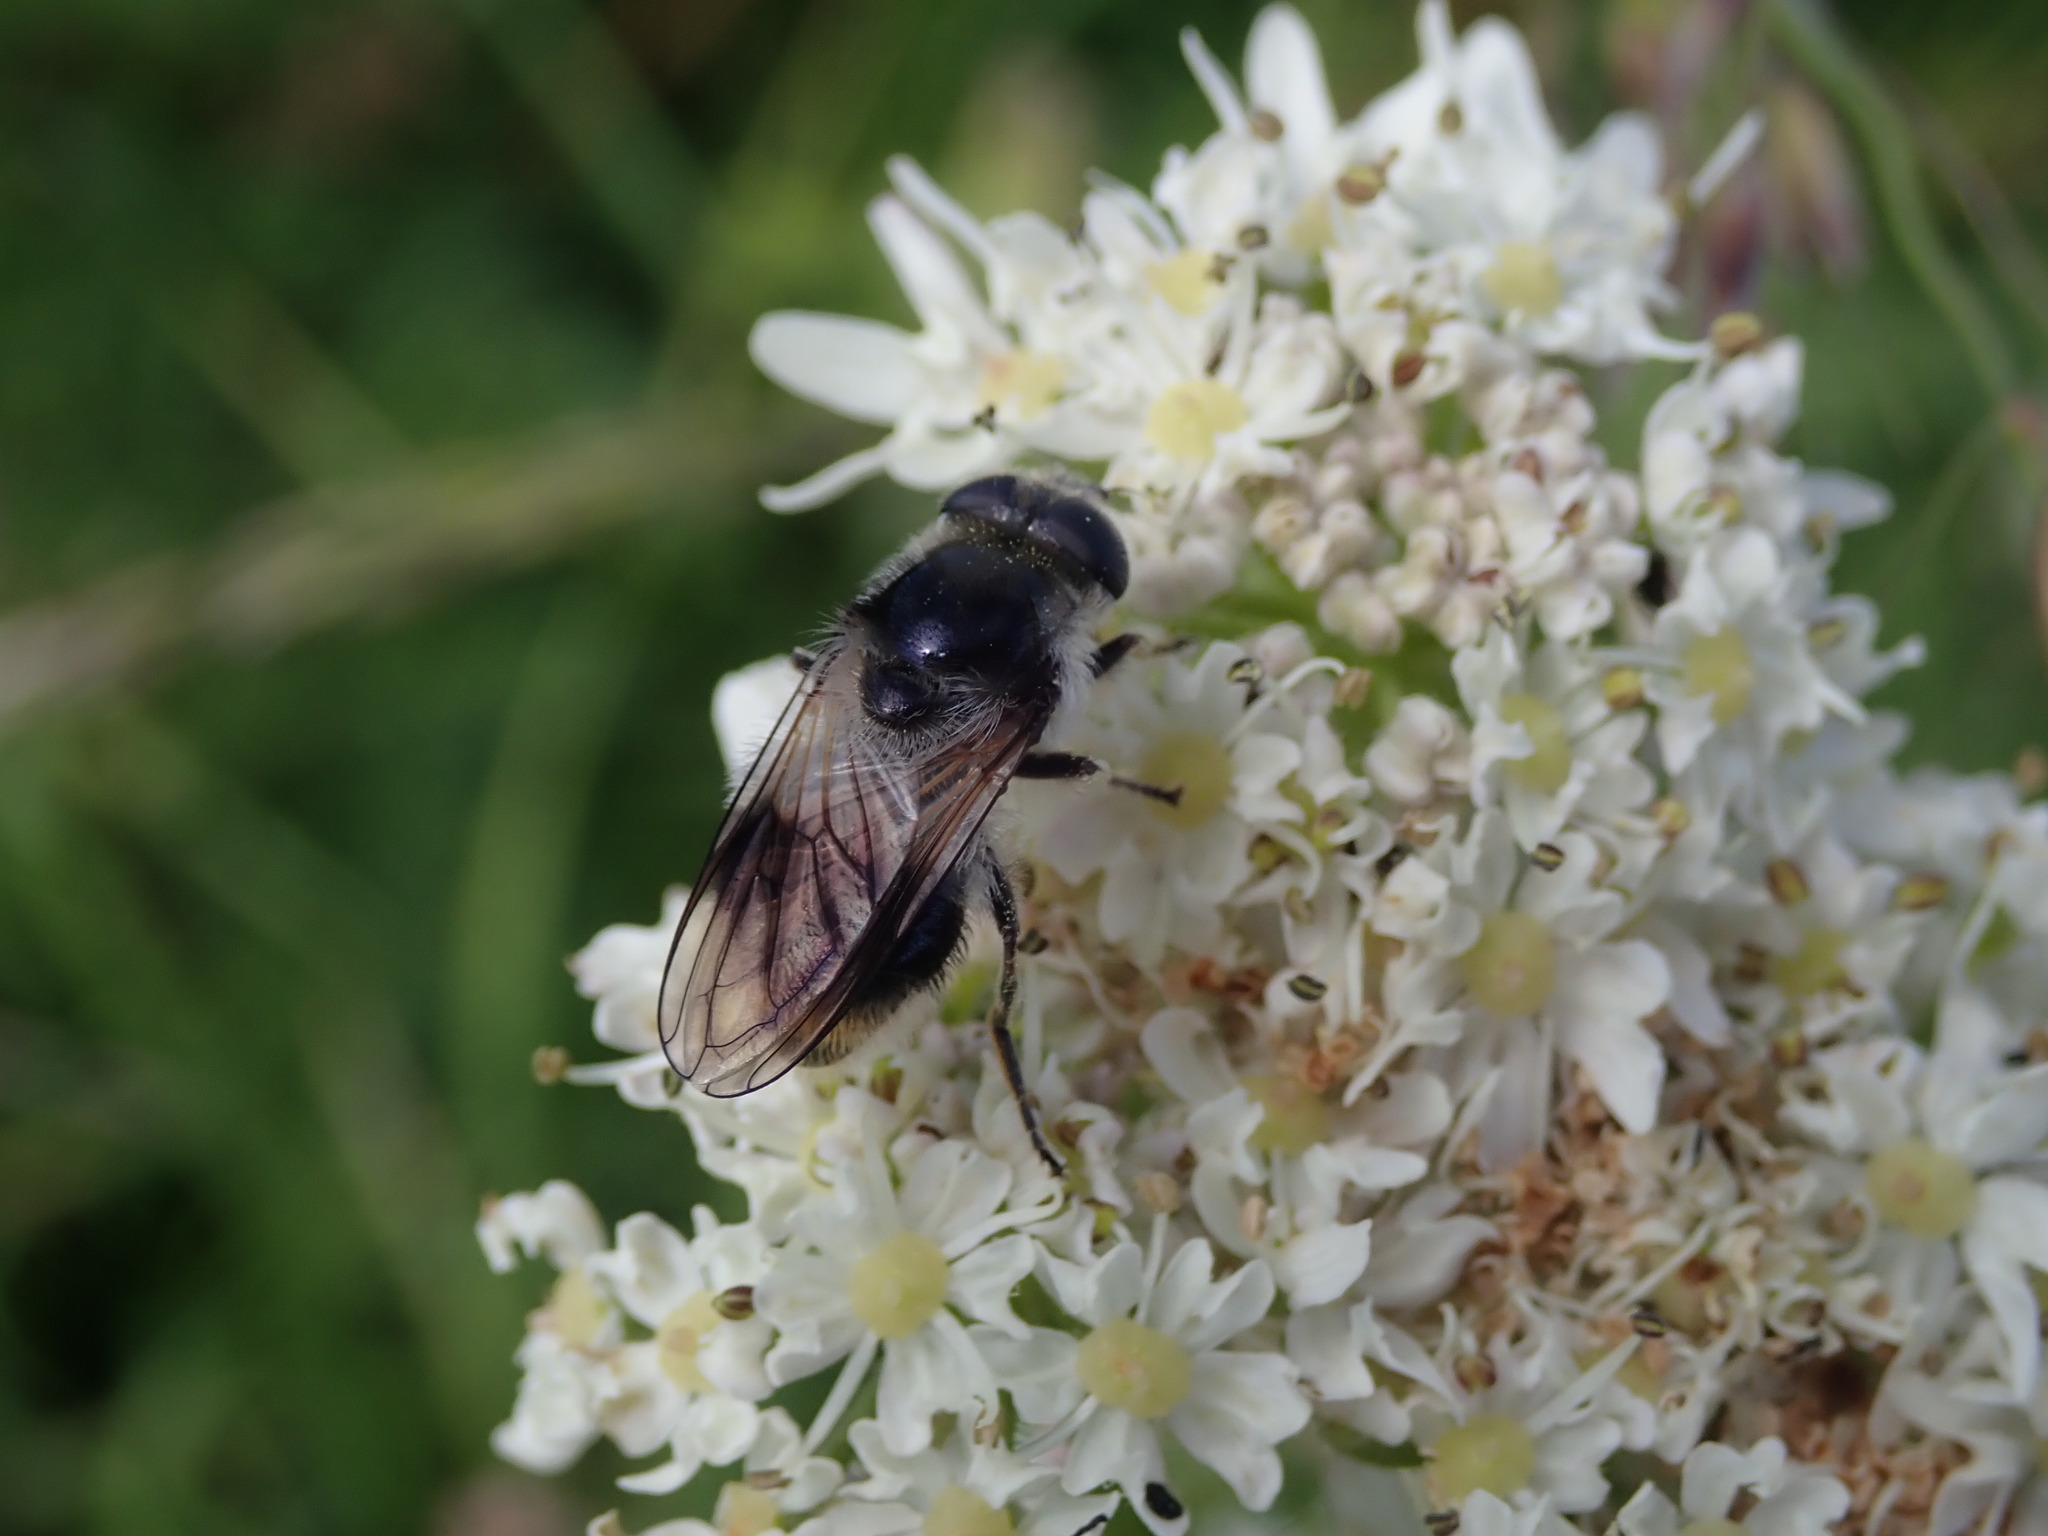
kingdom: Animalia
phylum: Arthropoda
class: Insecta
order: Diptera
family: Syrphidae
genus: Cheilosia
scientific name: Cheilosia illustrata
